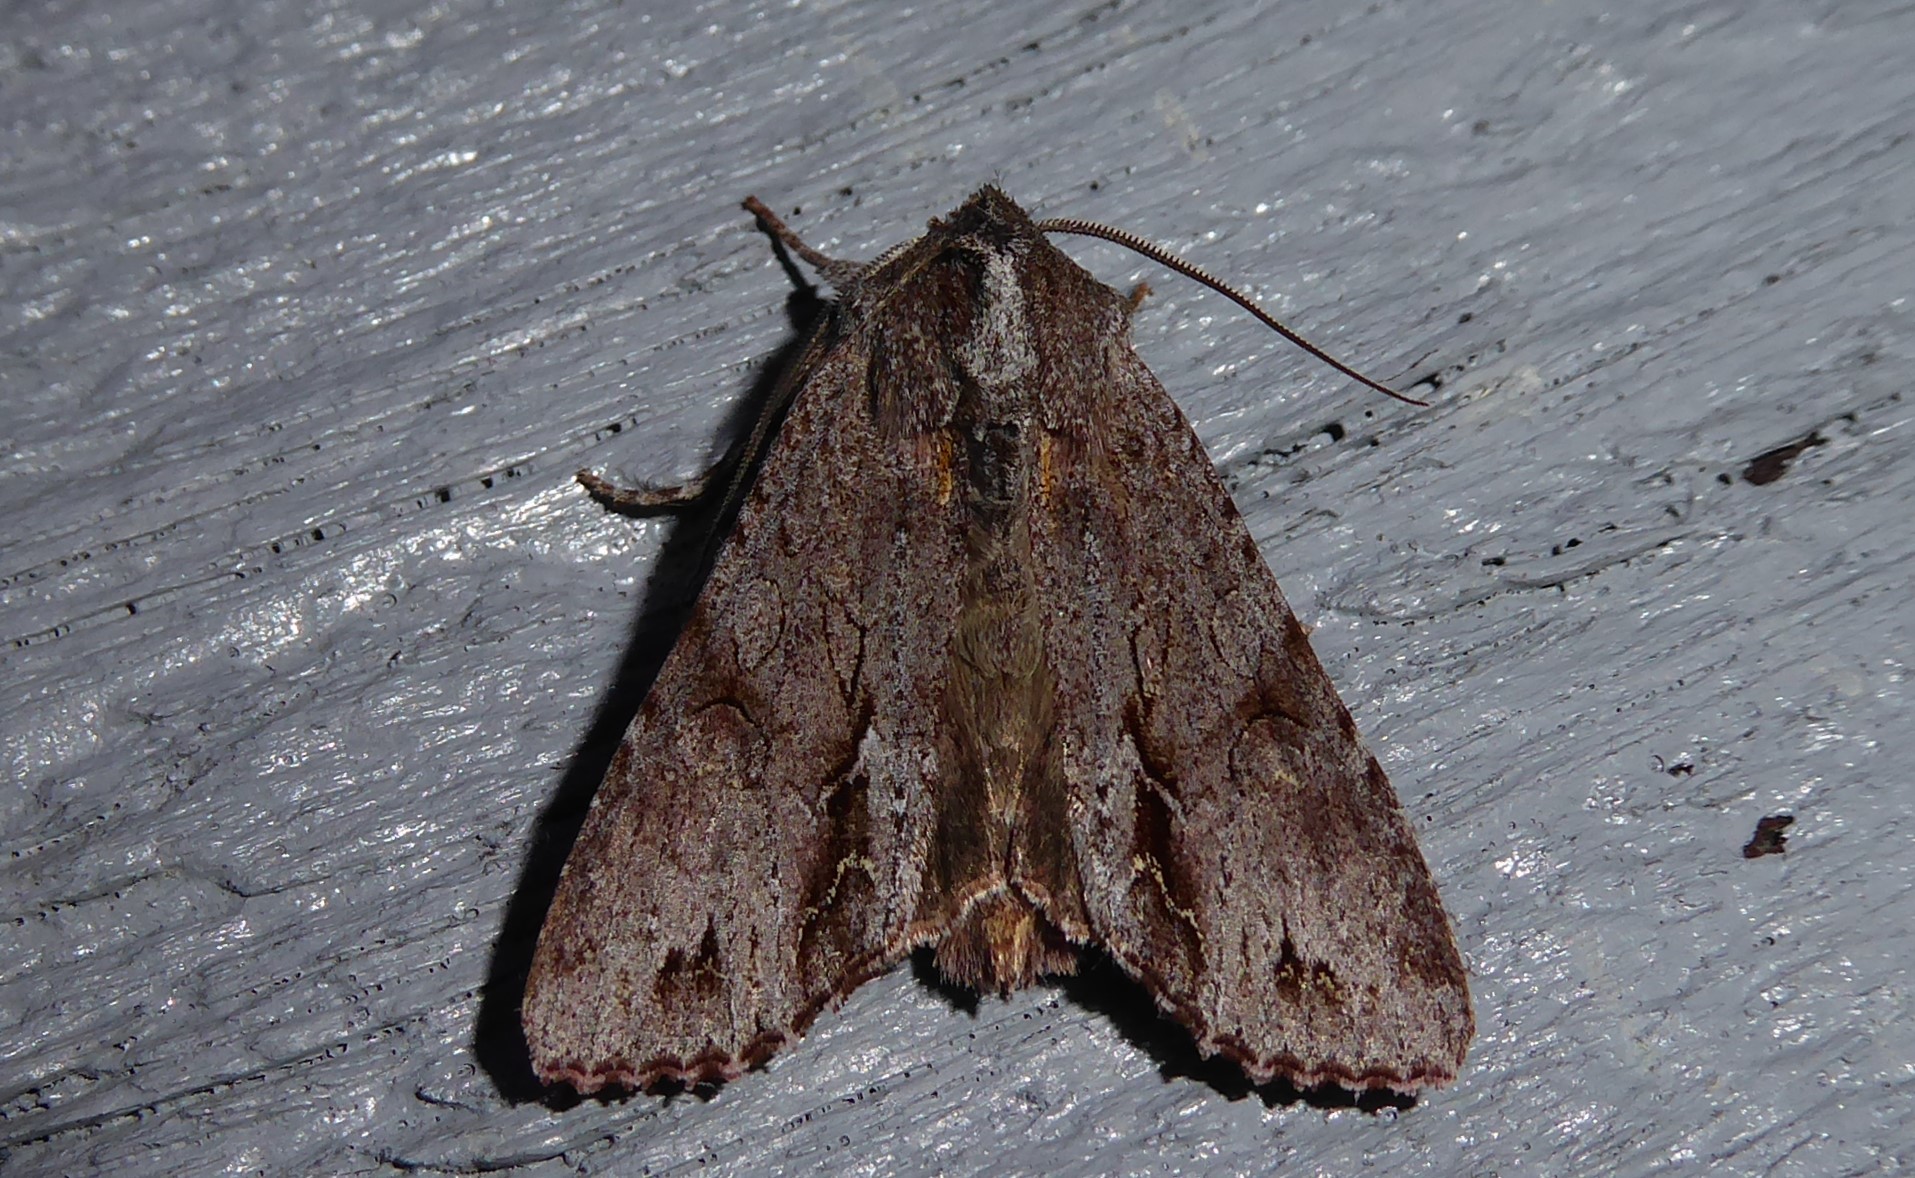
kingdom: Animalia
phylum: Arthropoda
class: Insecta
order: Lepidoptera
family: Noctuidae
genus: Ichneutica
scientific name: Ichneutica
